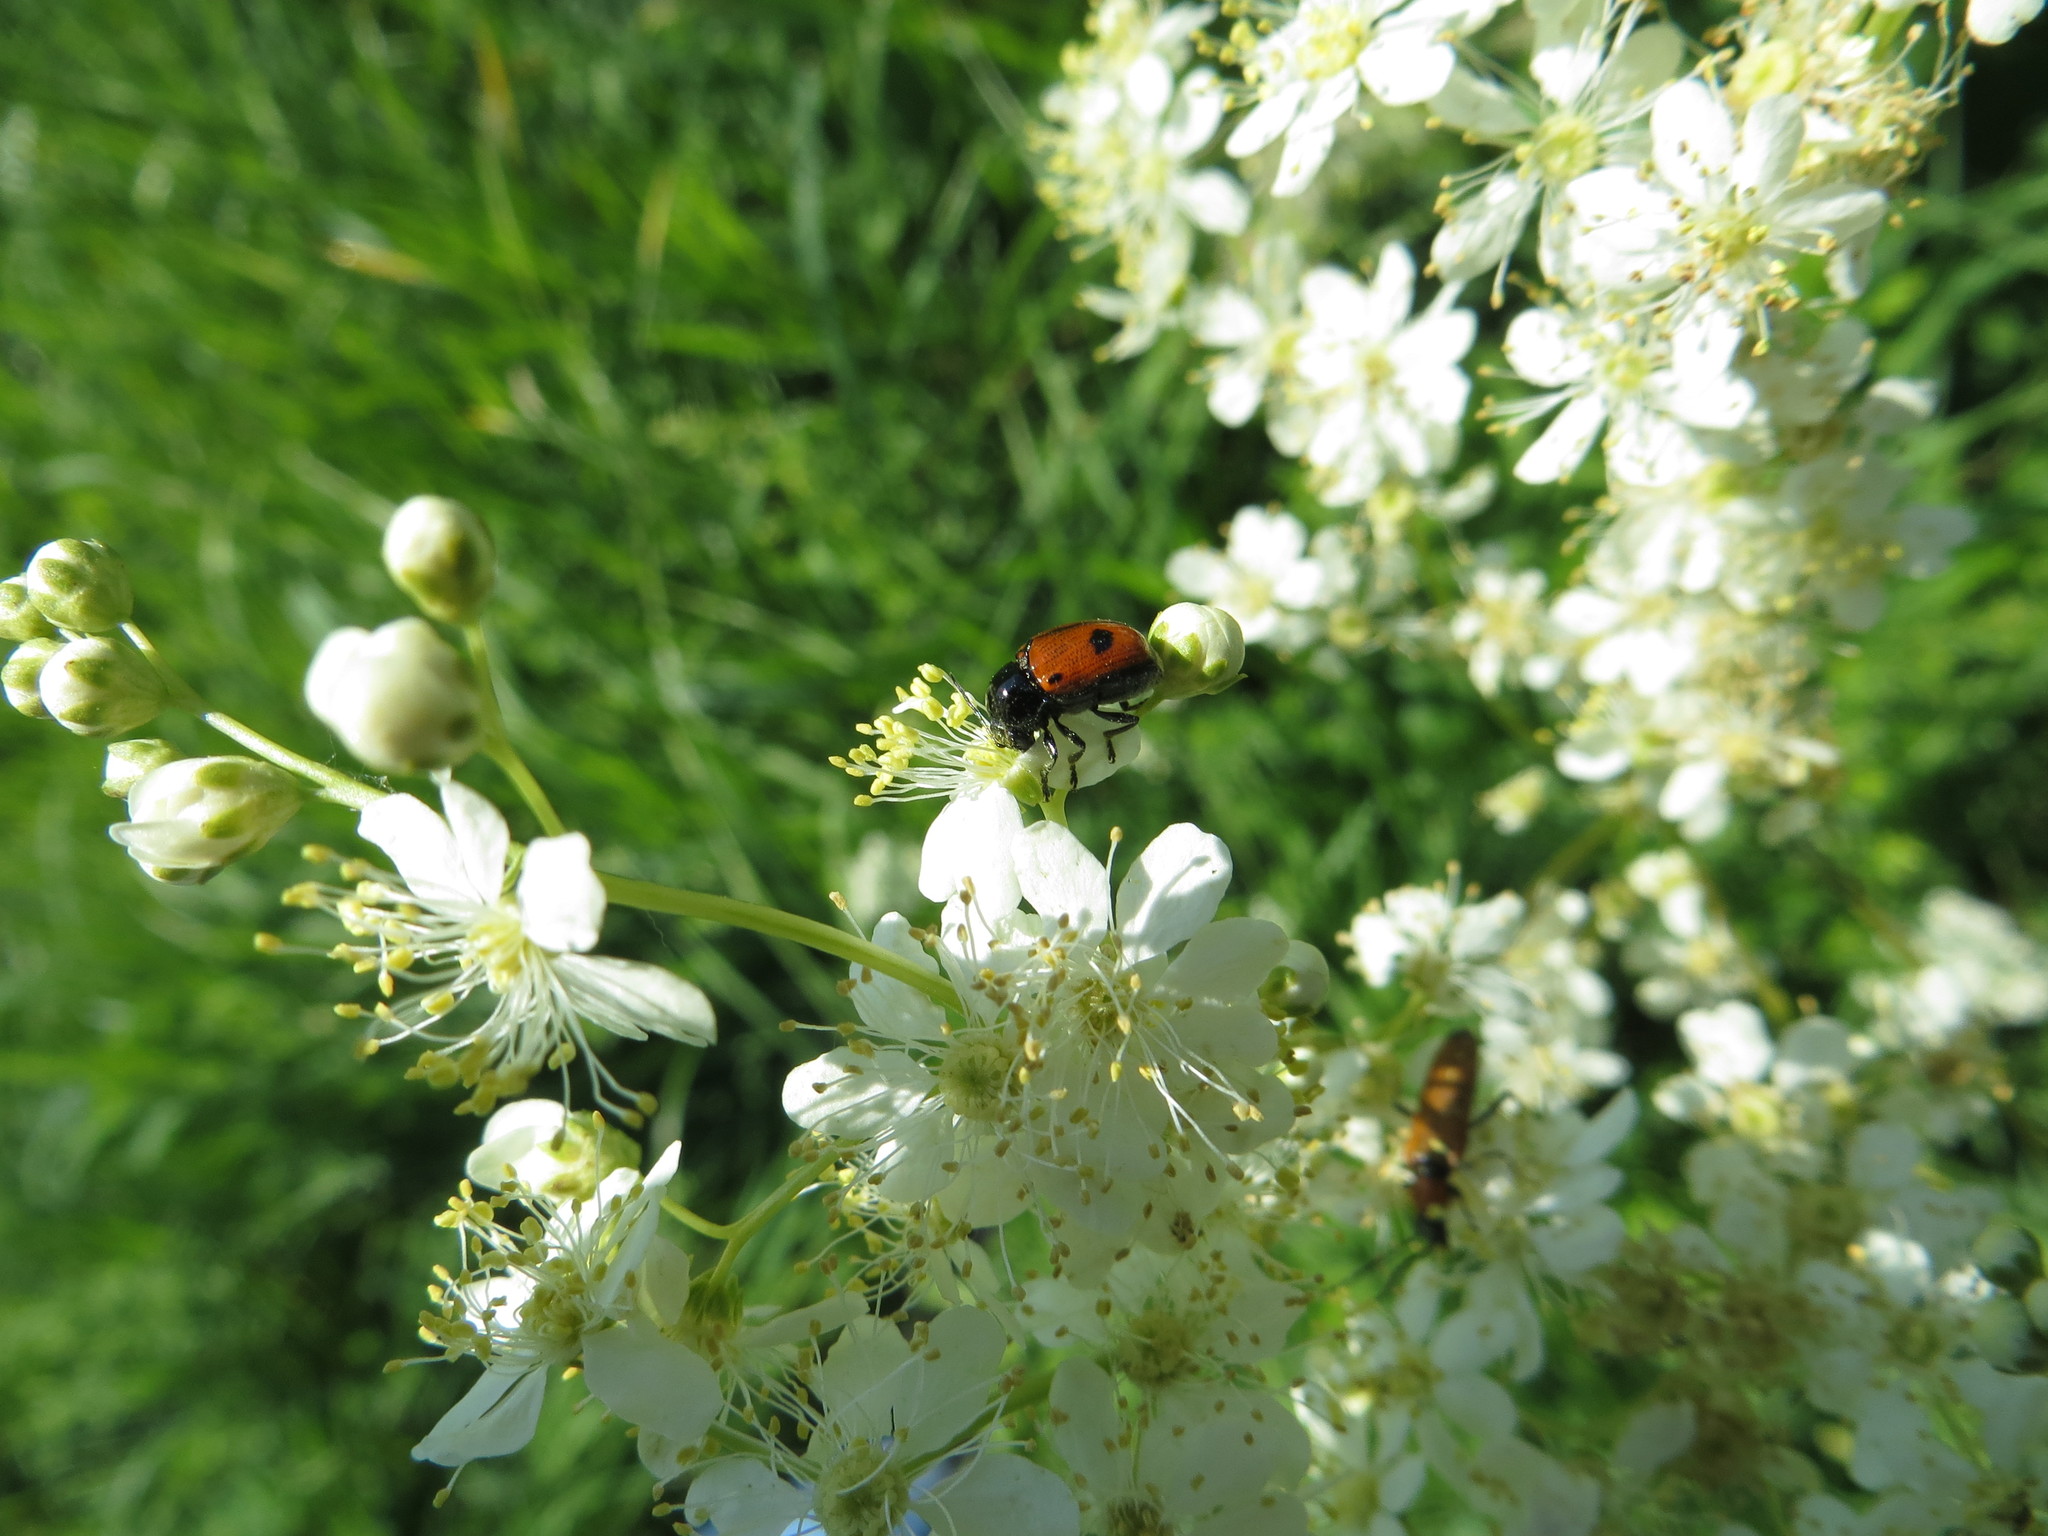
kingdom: Animalia
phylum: Arthropoda
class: Insecta
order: Coleoptera
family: Chrysomelidae
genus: Chiridopsis
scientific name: Chiridopsis bipunctata
